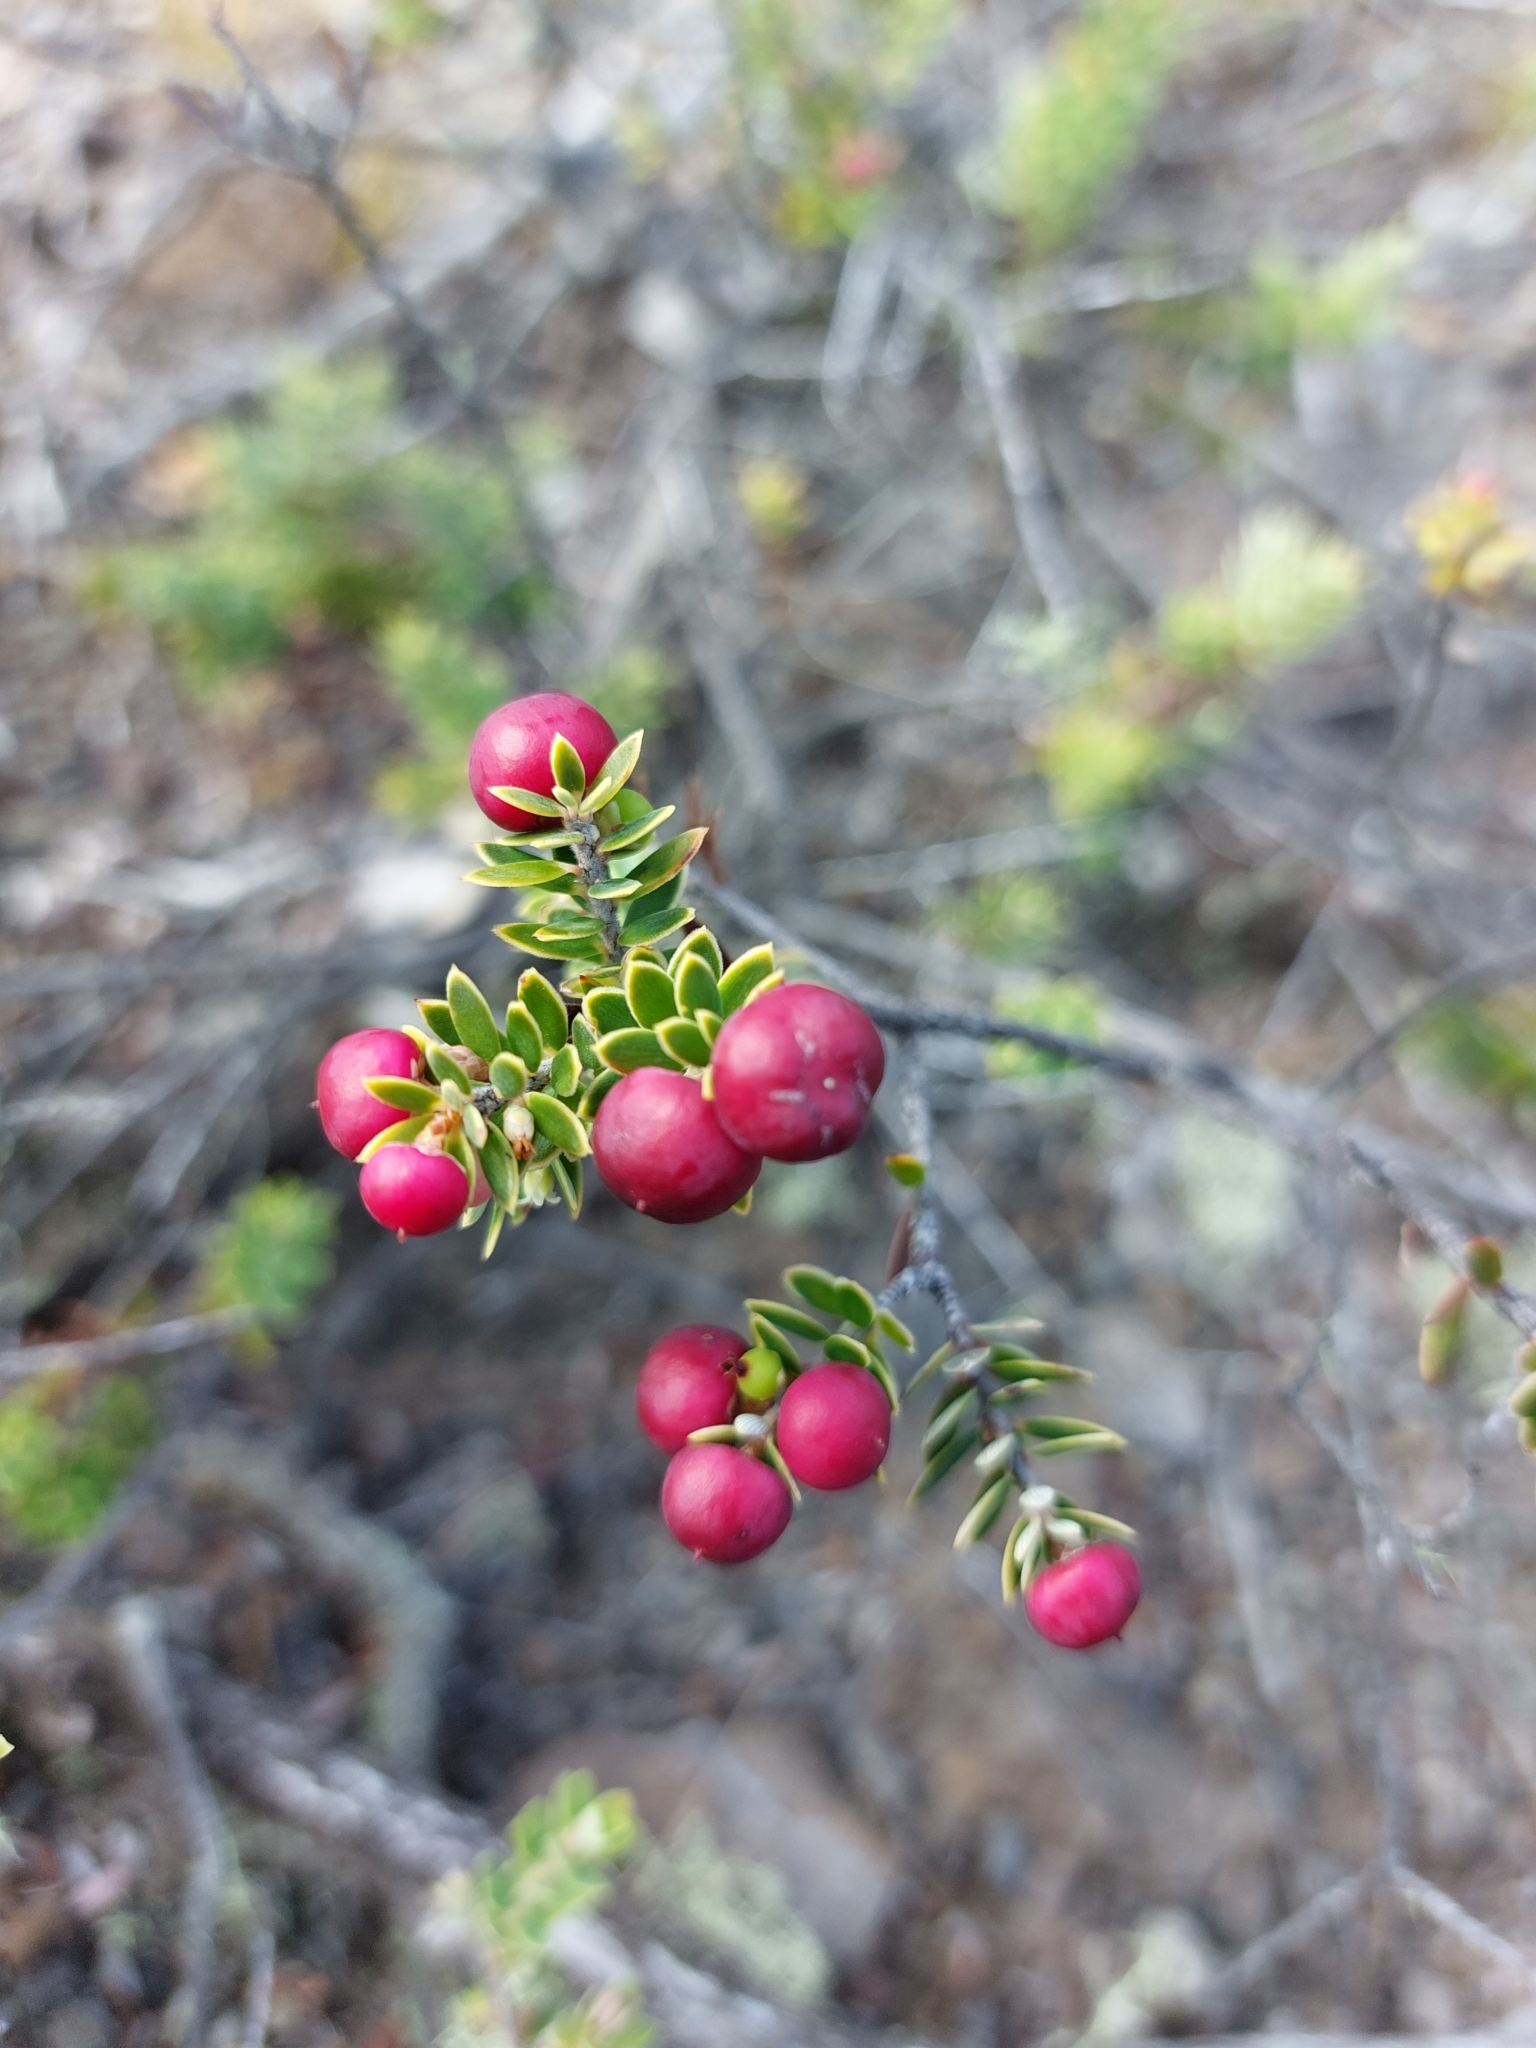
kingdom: Plantae
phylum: Tracheophyta
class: Magnoliopsida
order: Ericales
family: Ericaceae
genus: Leptecophylla
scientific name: Leptecophylla tameiameiae
